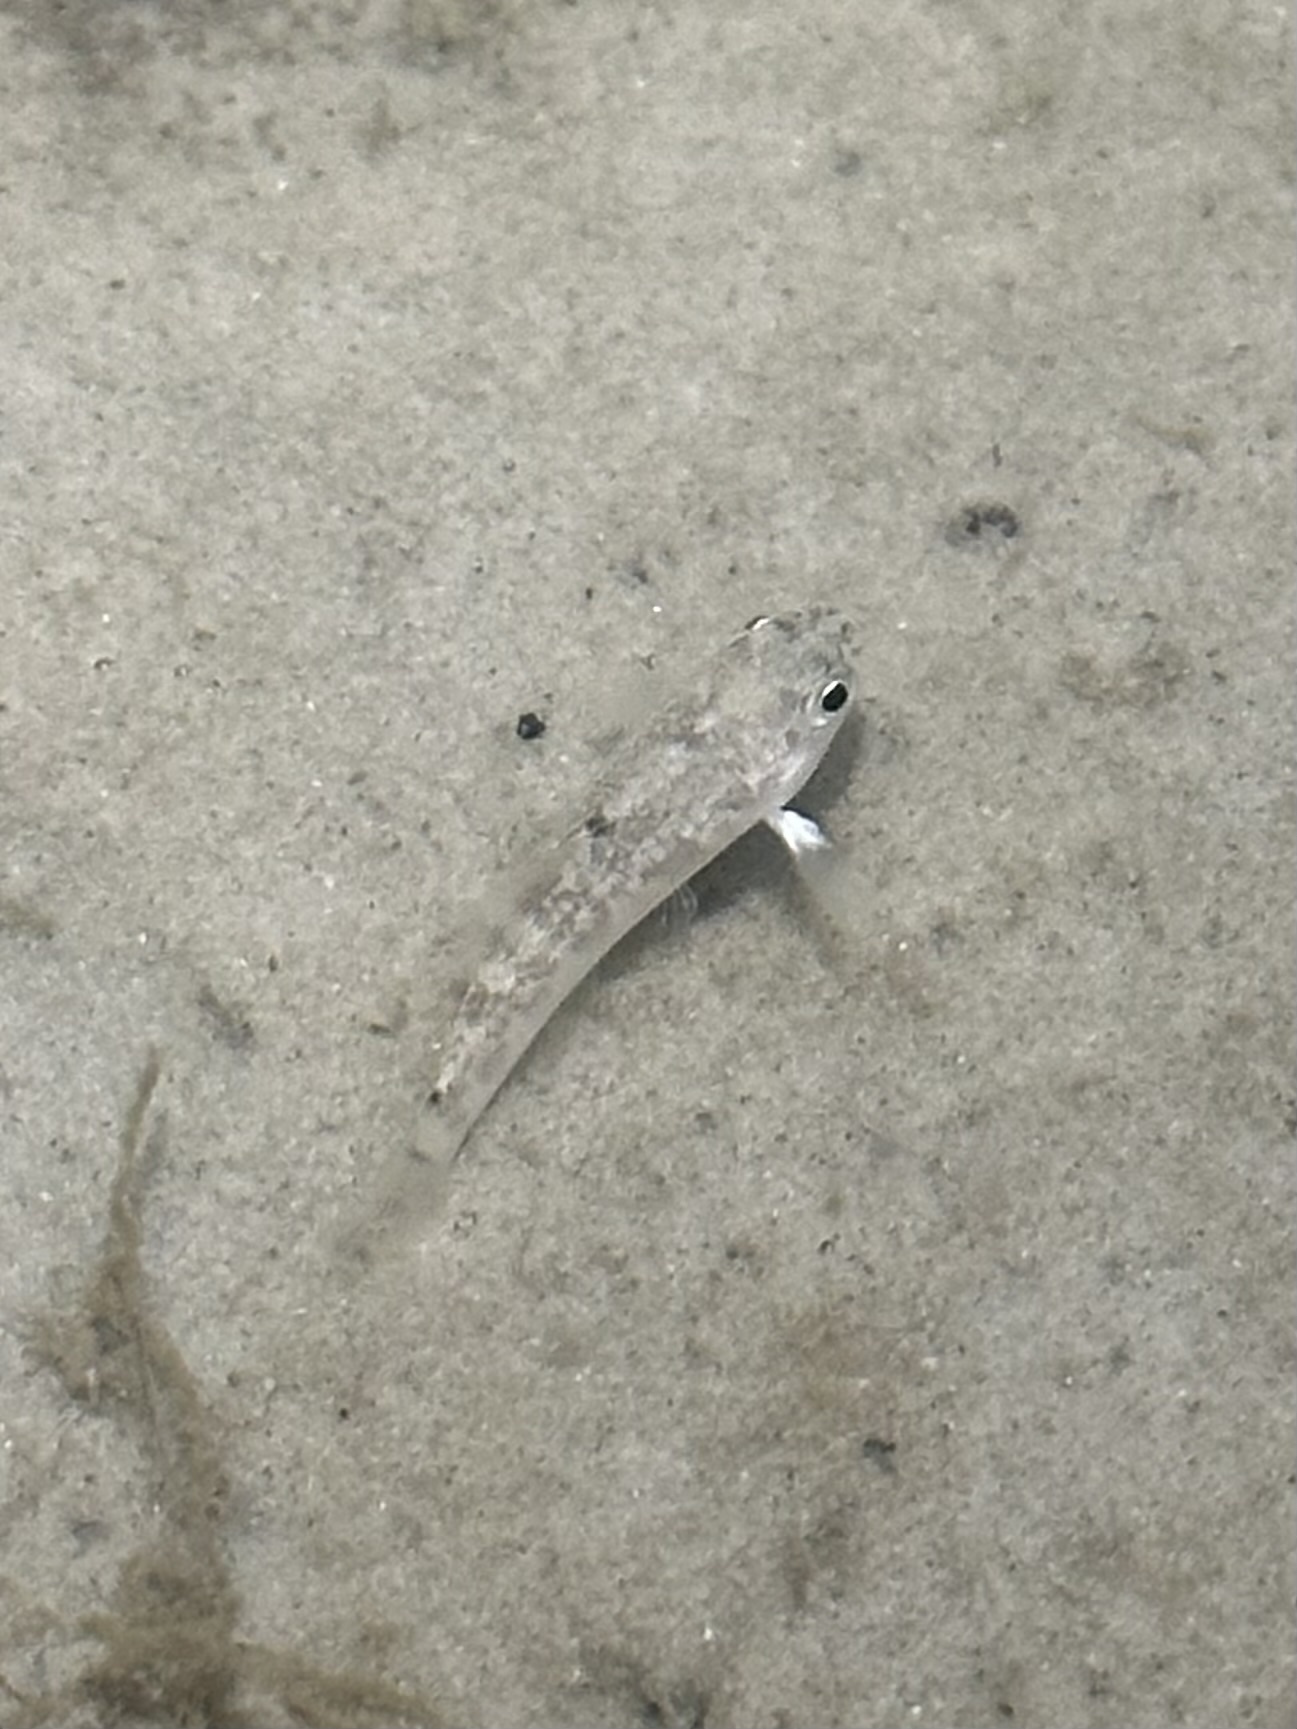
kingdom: Animalia
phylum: Chordata
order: Cyprinodontiformes
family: Cyprinodontidae
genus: Cyprinodon
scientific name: Cyprinodon variegatus
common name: Sheepshead minnow
